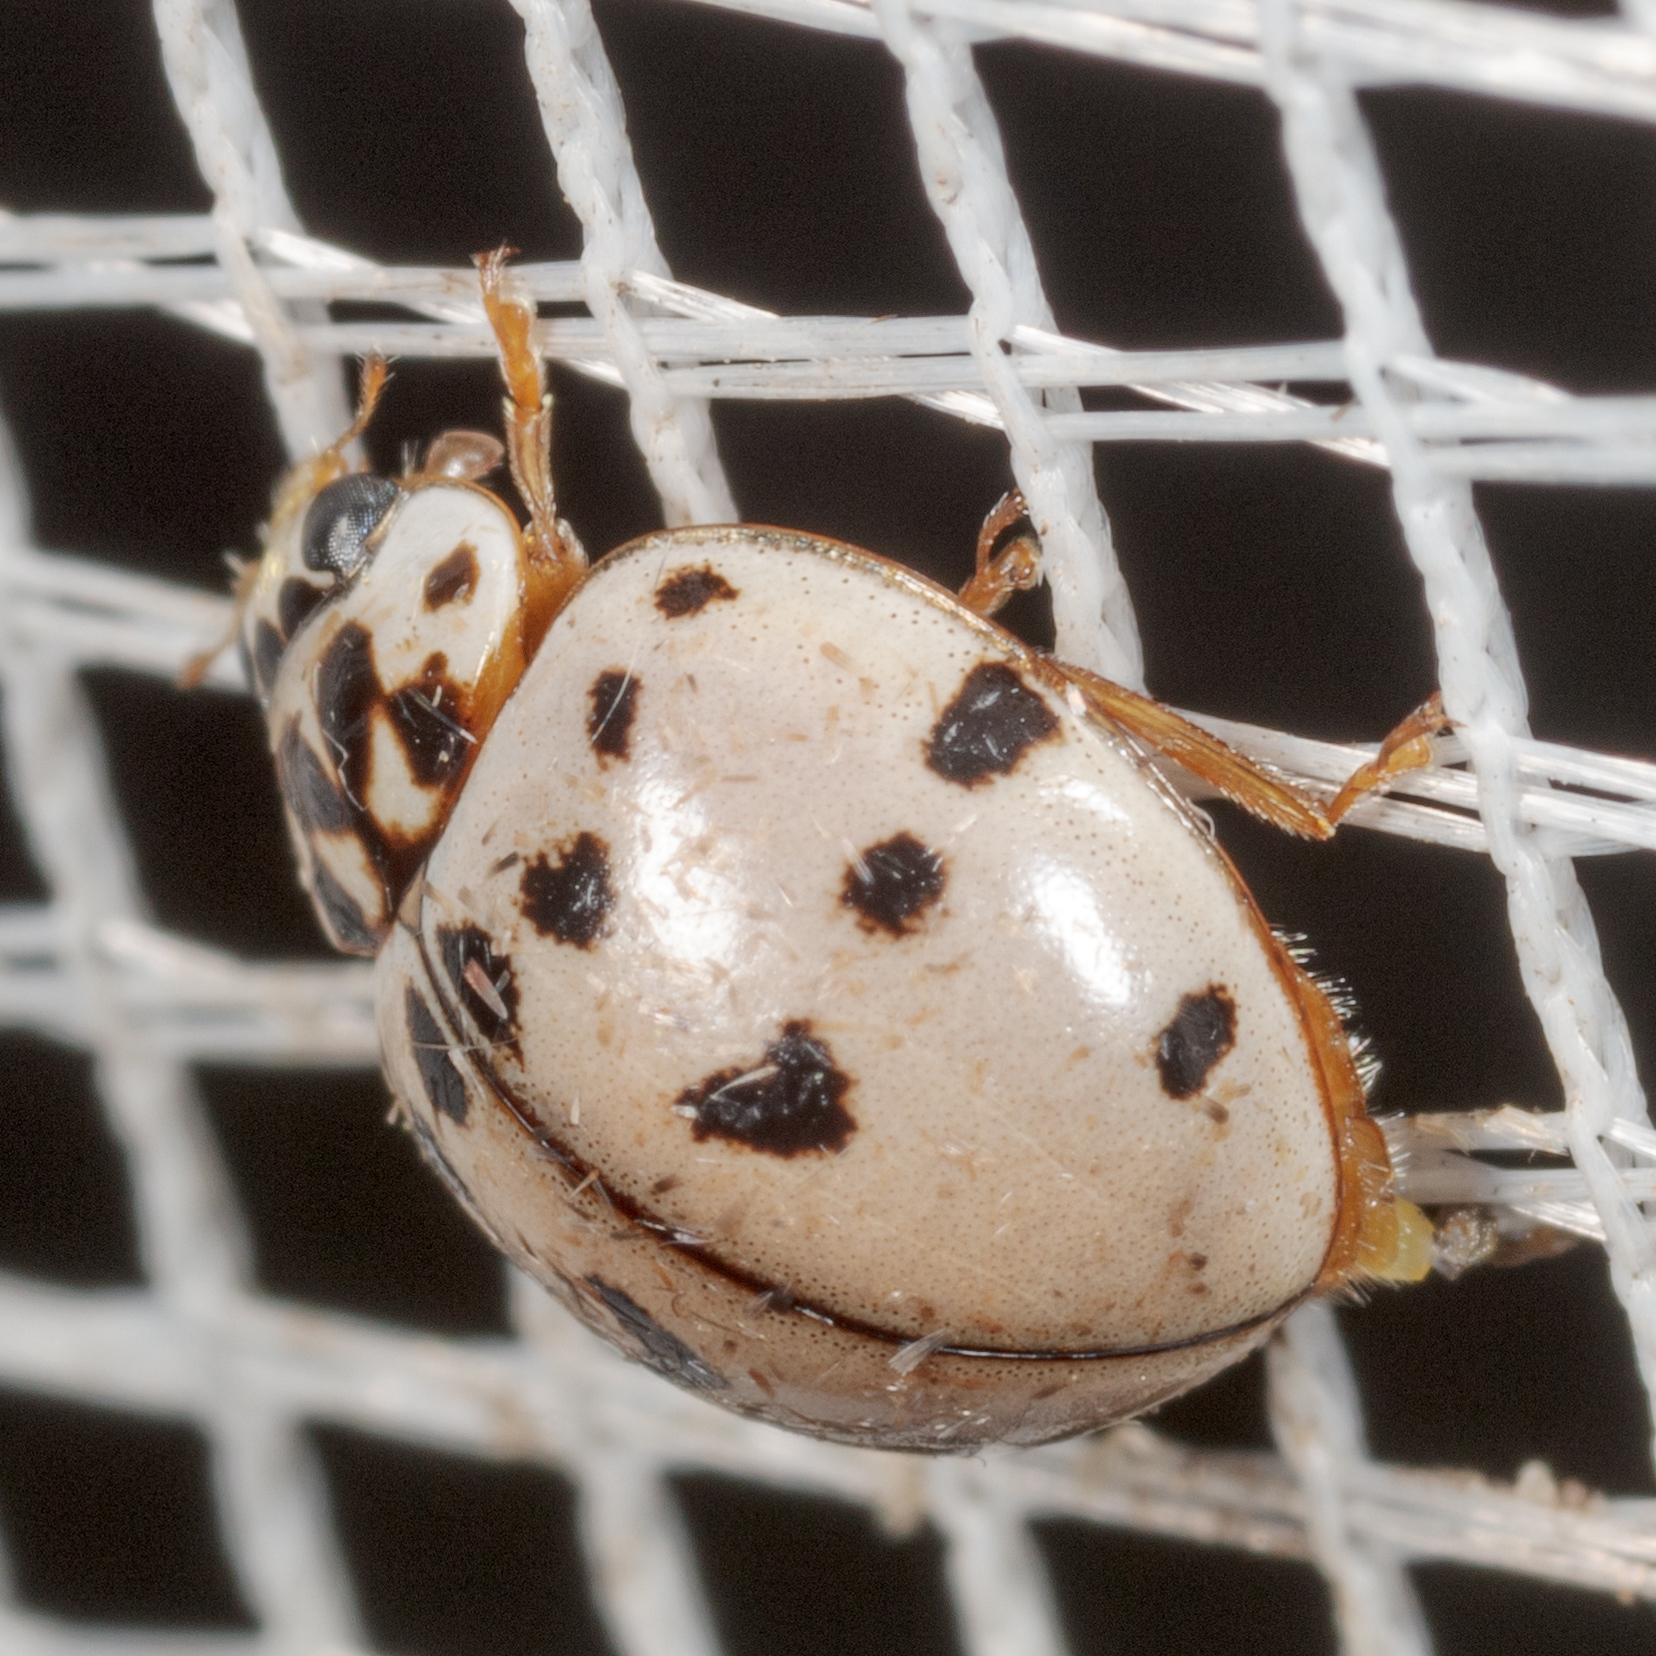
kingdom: Animalia
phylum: Arthropoda
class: Insecta
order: Coleoptera
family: Coccinellidae
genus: Olla
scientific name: Olla v-nigrum
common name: Ashy gray lady beetle
